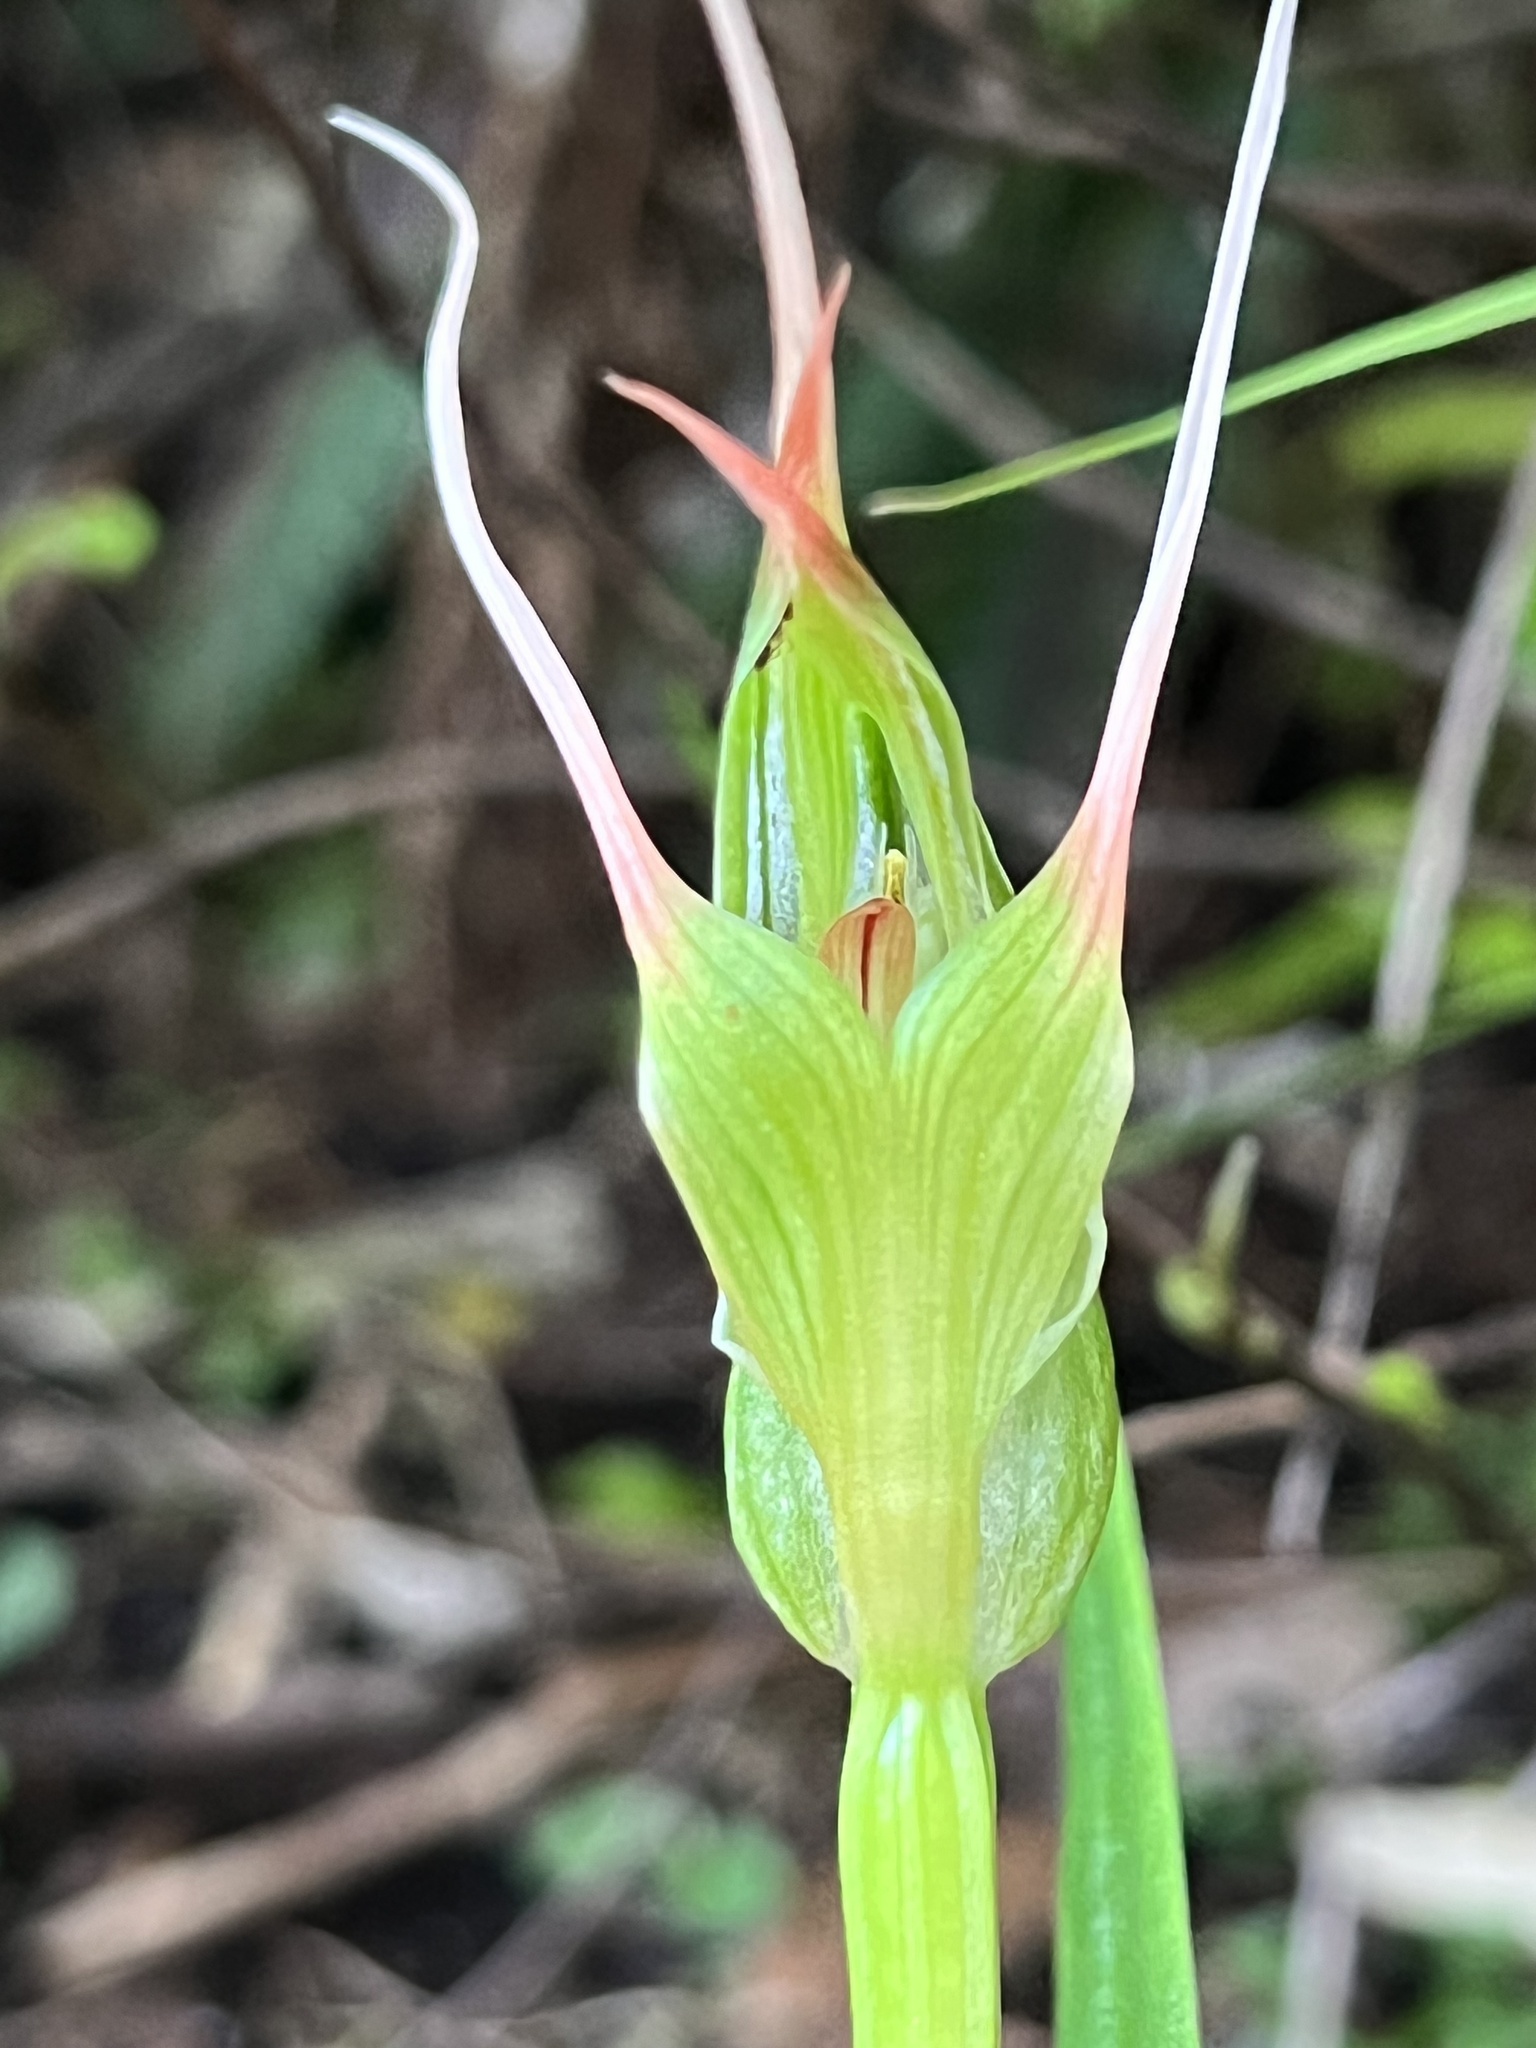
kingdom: Plantae
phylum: Tracheophyta
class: Liliopsida
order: Asparagales
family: Orchidaceae
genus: Pterostylis
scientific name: Pterostylis banksii
